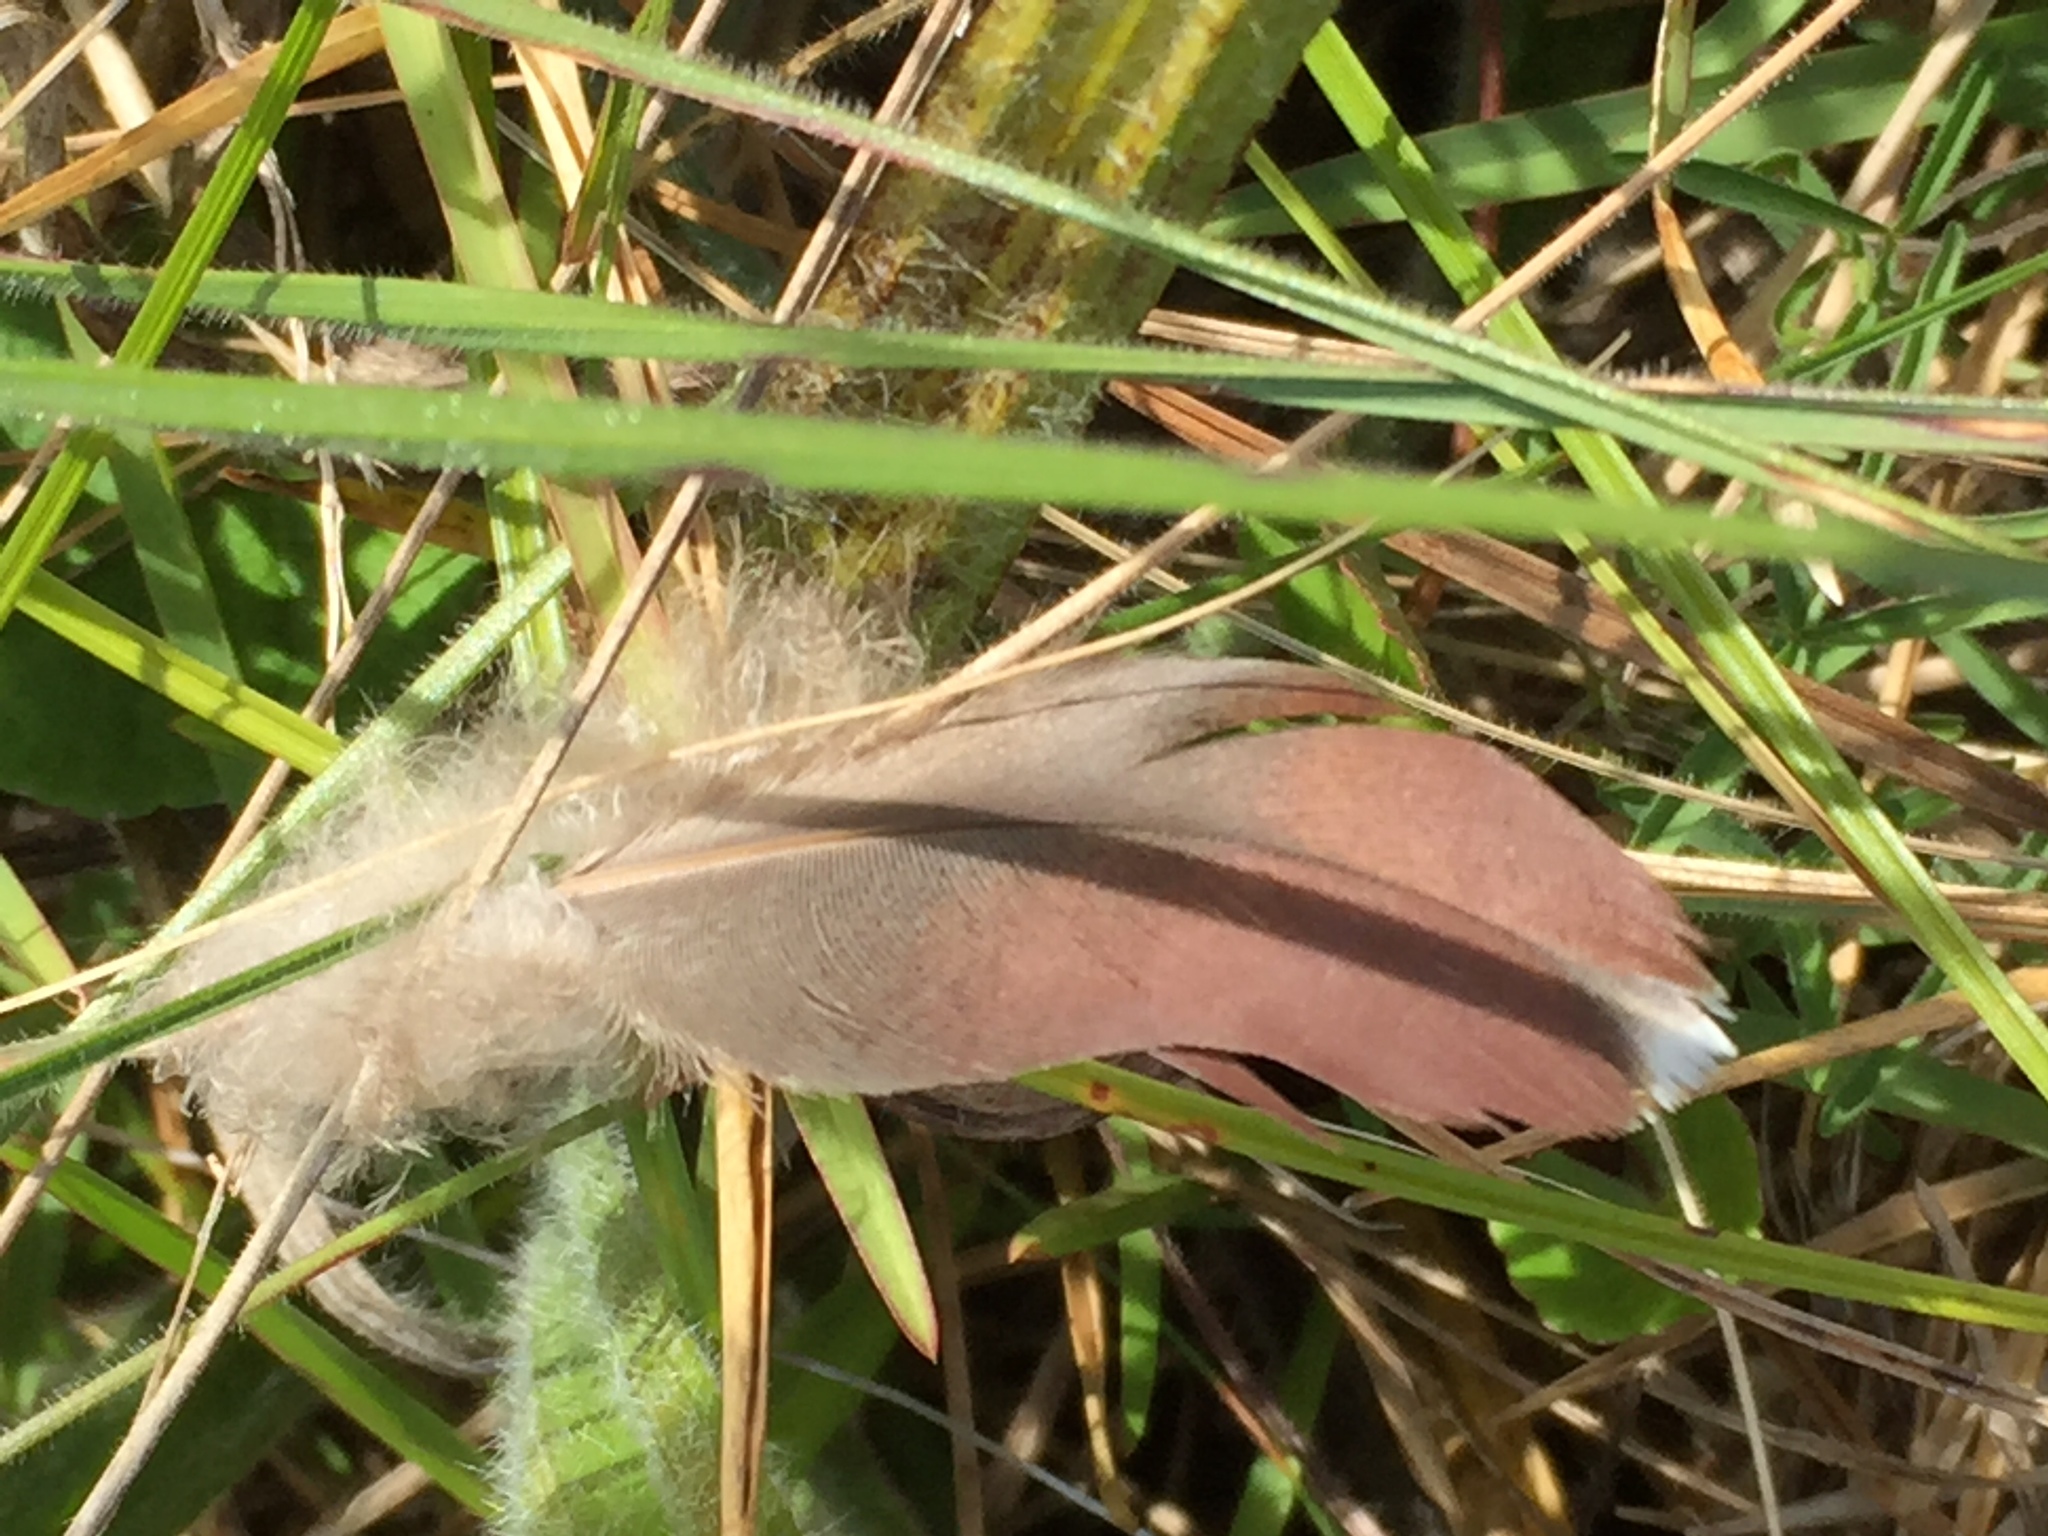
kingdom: Animalia
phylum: Chordata
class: Aves
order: Columbiformes
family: Columbidae
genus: Columba
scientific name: Columba guinea
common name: Speckled pigeon
